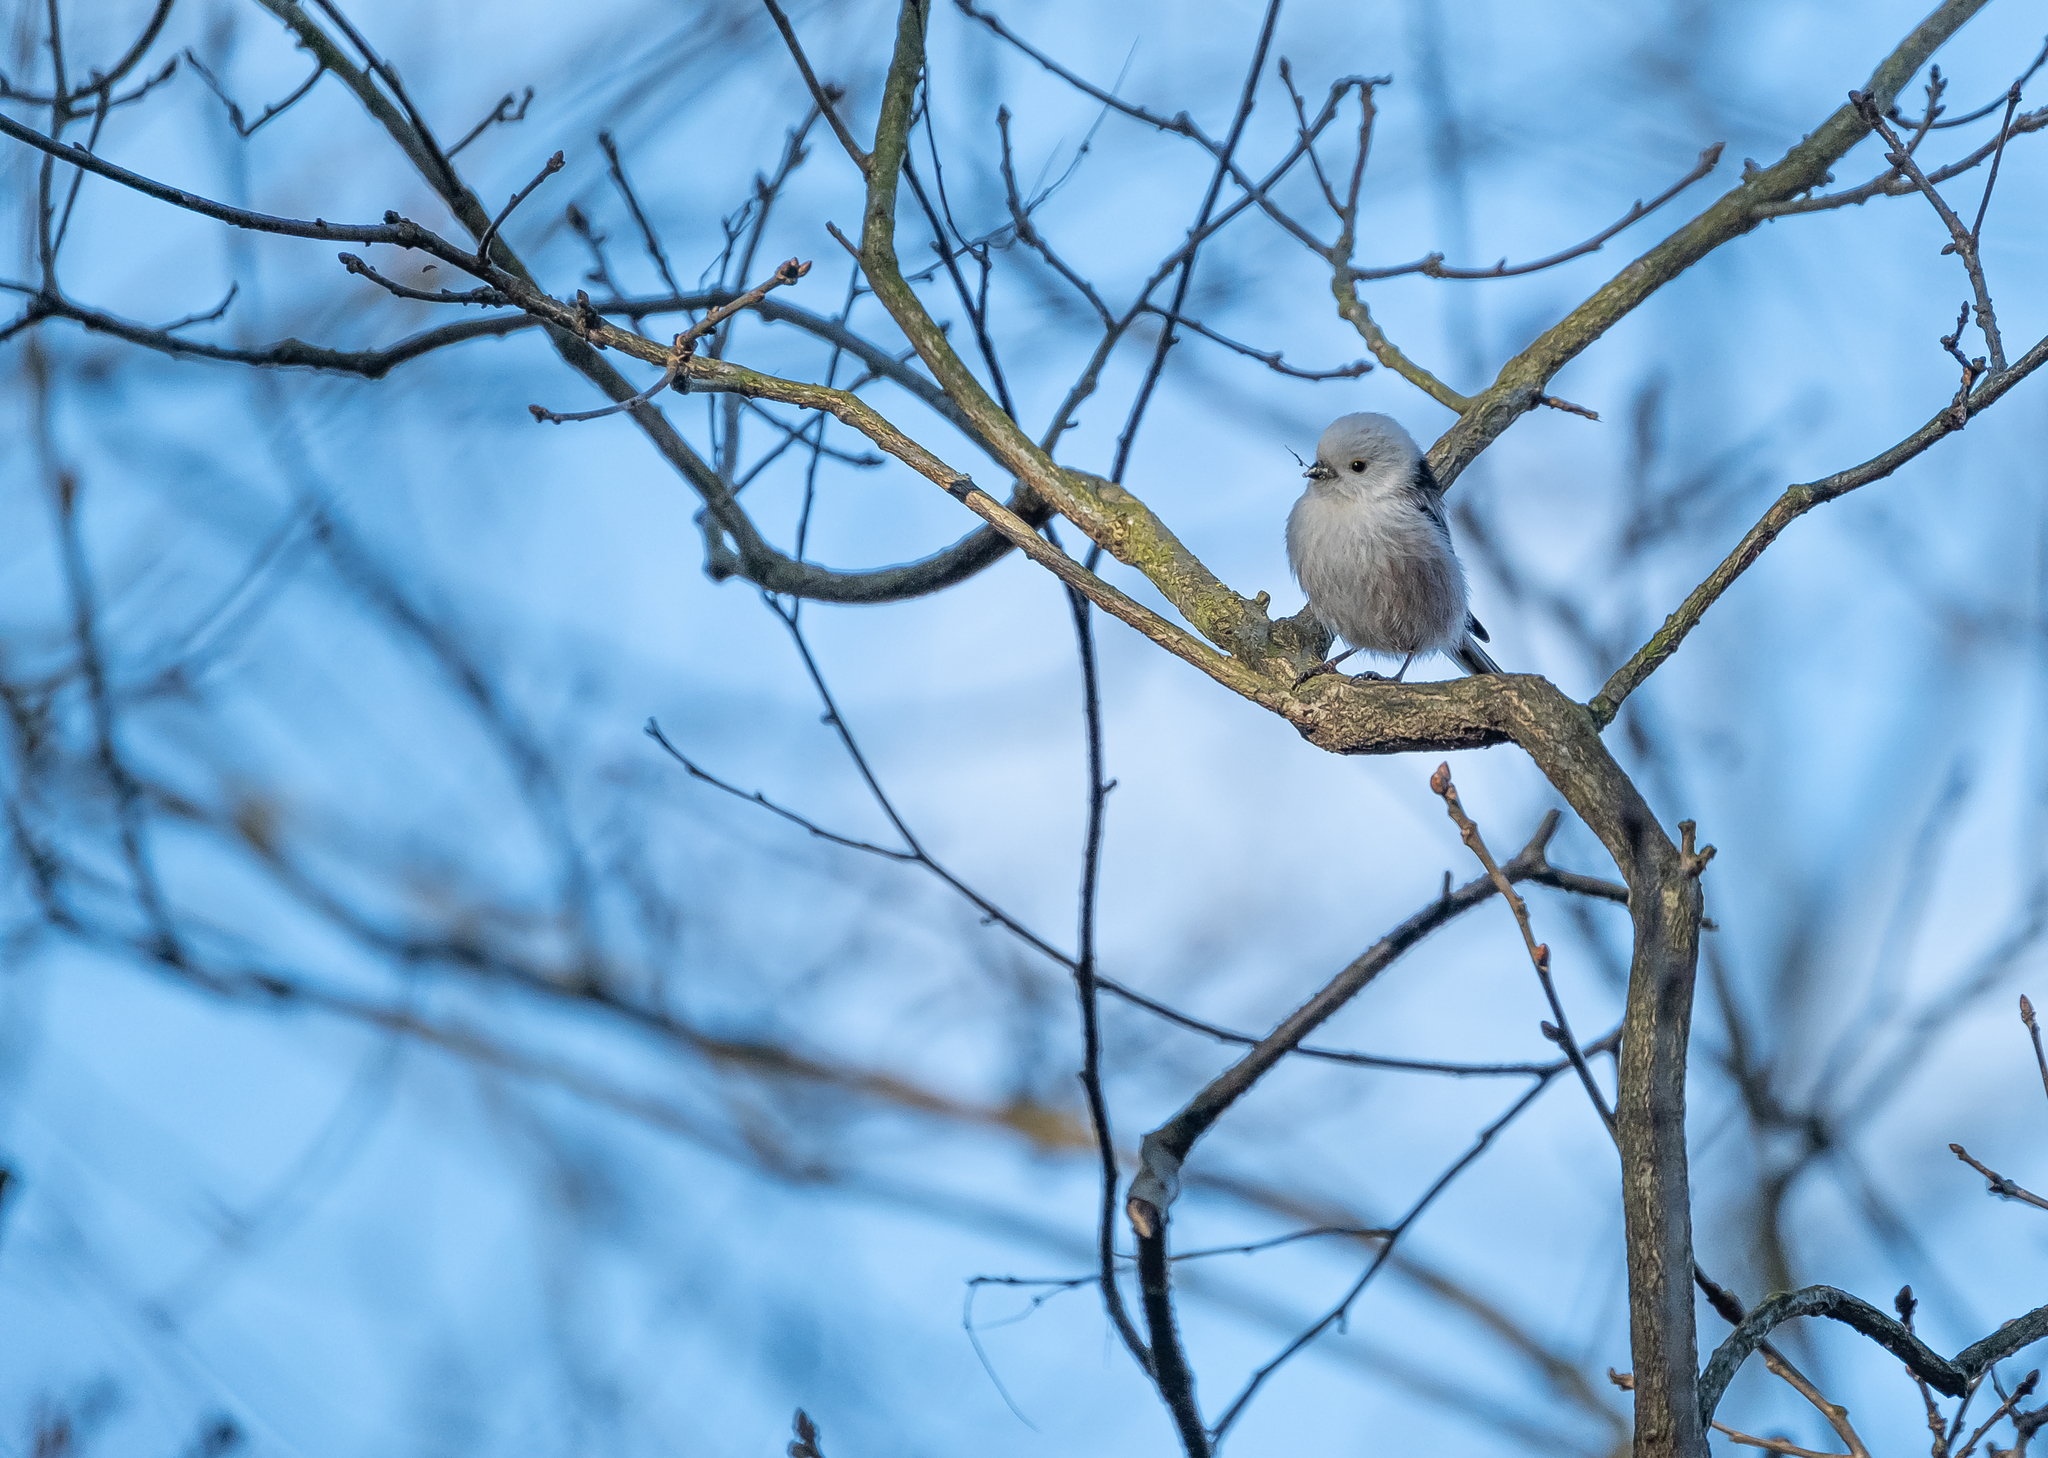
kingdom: Animalia
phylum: Chordata
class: Aves
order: Passeriformes
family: Aegithalidae
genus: Aegithalos
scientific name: Aegithalos caudatus
